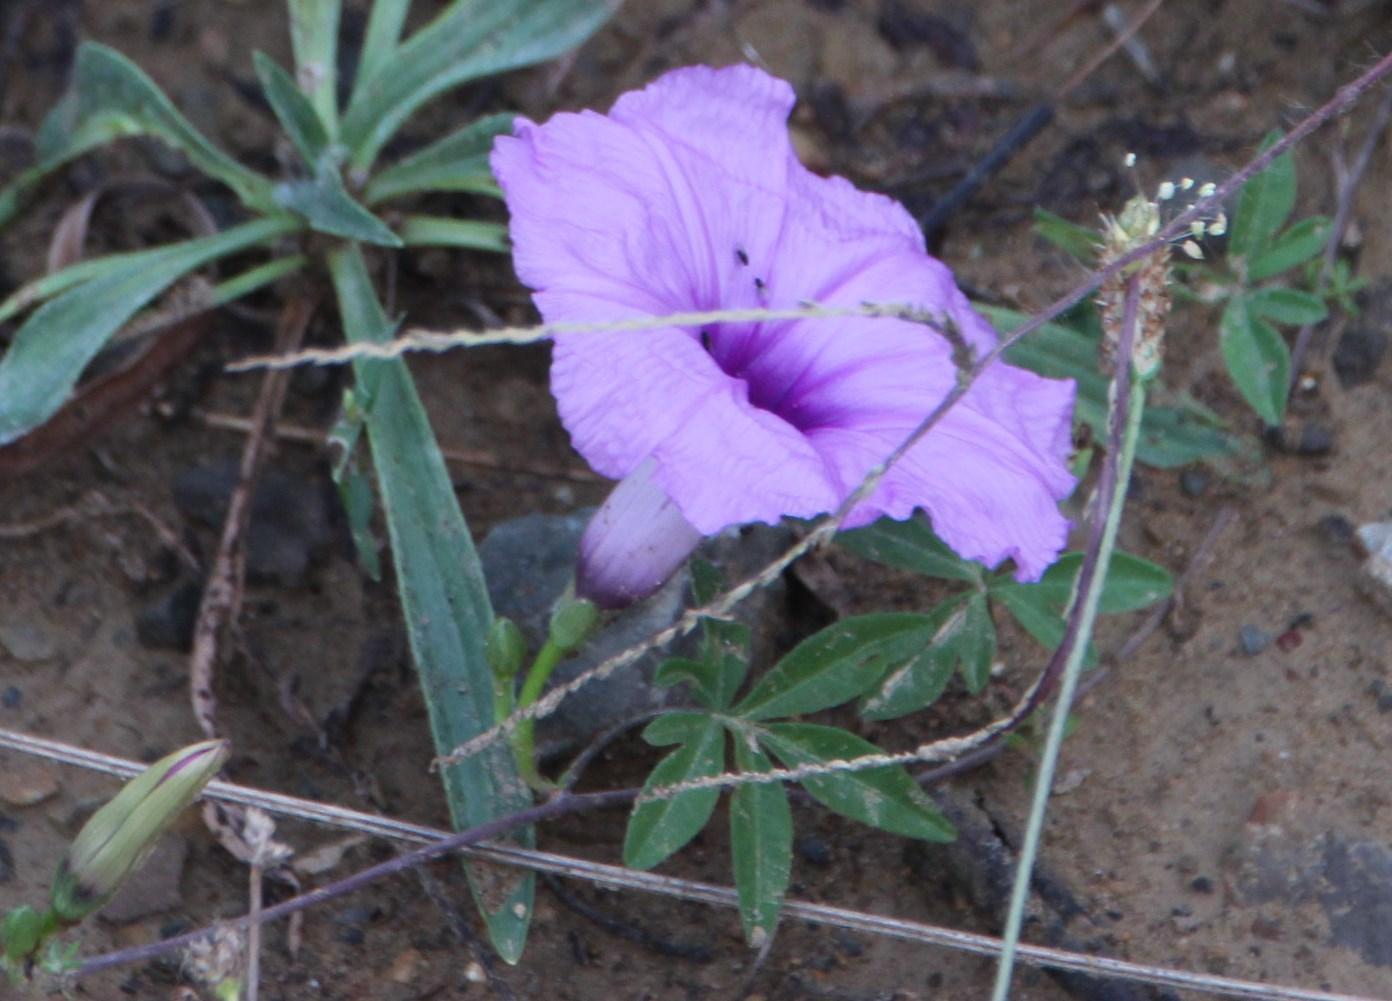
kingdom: Plantae
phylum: Tracheophyta
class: Magnoliopsida
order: Solanales
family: Convolvulaceae
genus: Ipomoea
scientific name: Ipomoea cairica
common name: Mile a minute vine
